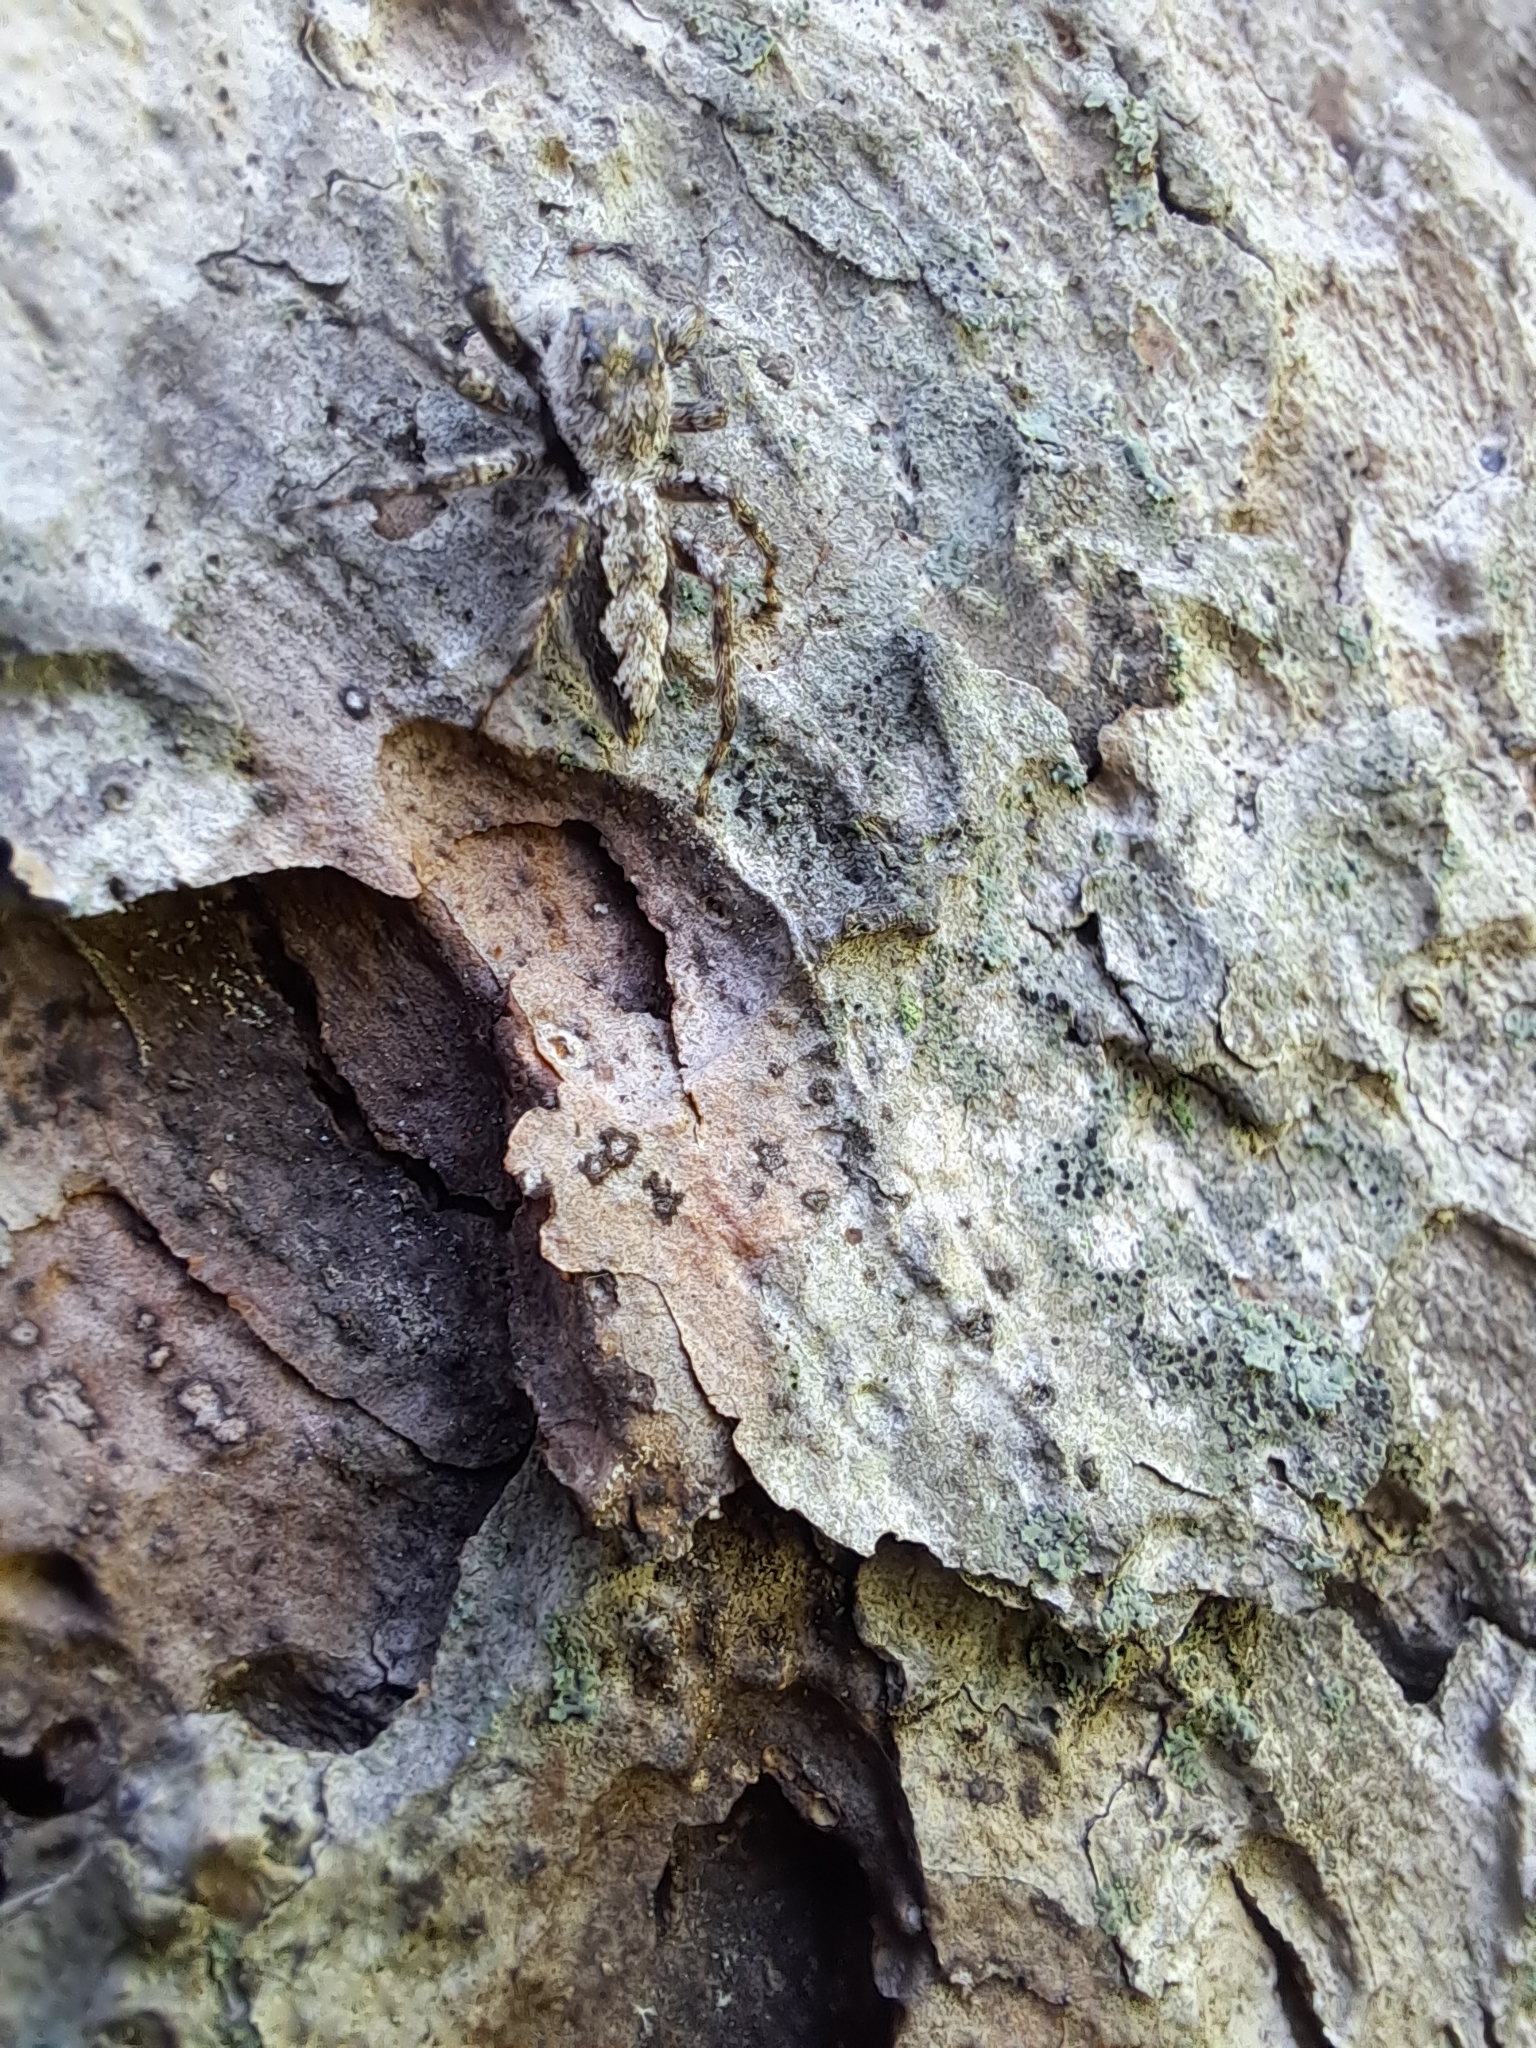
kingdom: Animalia
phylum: Arthropoda
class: Arachnida
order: Araneae
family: Salticidae
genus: Platycryptus
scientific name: Platycryptus undatus
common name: Tan jumping spider
